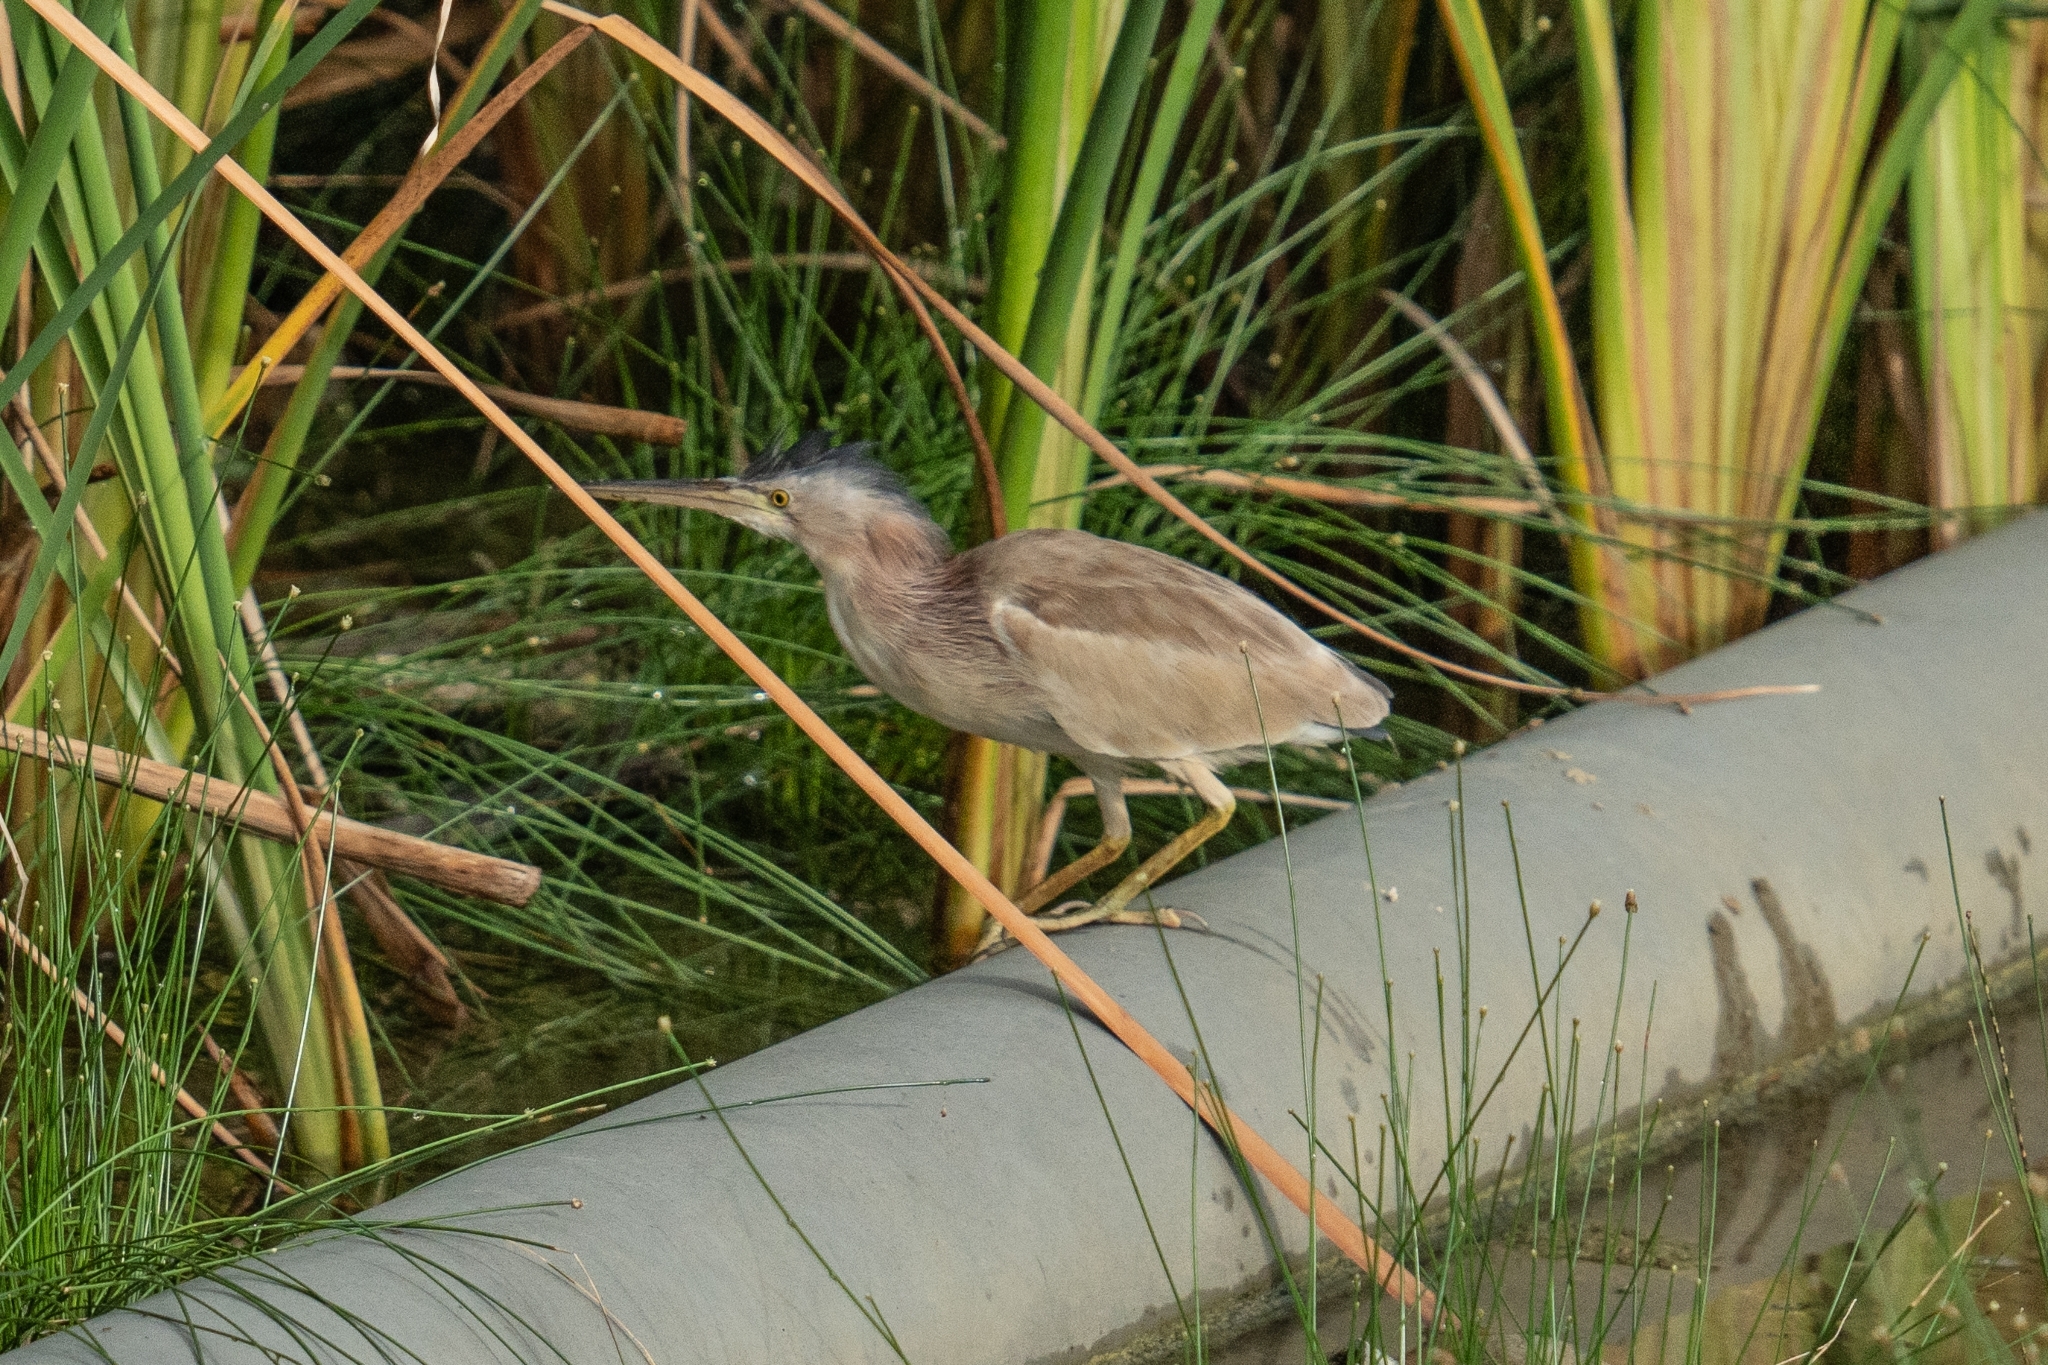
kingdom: Animalia
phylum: Chordata
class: Aves
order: Pelecaniformes
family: Ardeidae
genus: Ixobrychus
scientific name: Ixobrychus sinensis
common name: Yellow bittern
